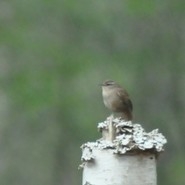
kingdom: Animalia
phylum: Chordata
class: Aves
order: Passeriformes
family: Troglodytidae
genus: Troglodytes
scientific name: Troglodytes troglodytes
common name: Eurasian wren
